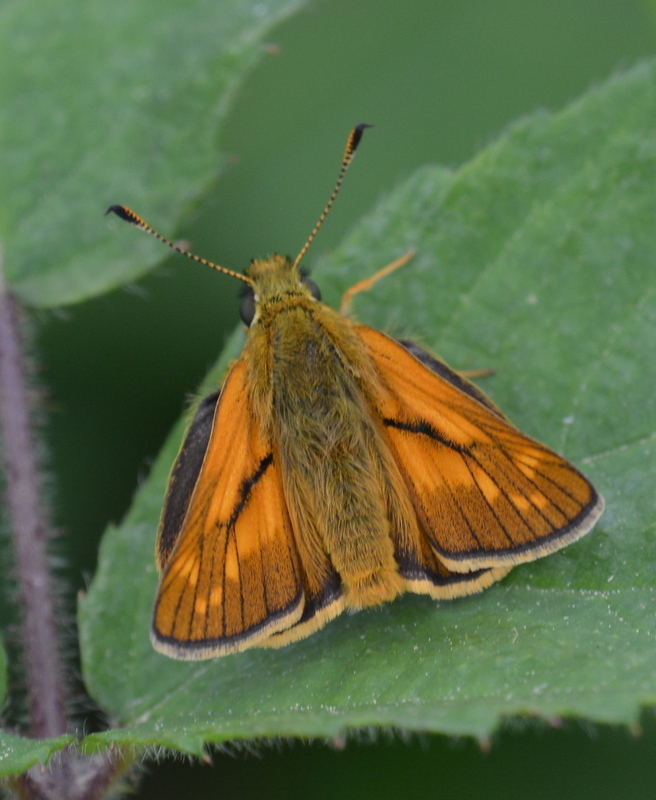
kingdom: Animalia
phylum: Arthropoda
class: Insecta
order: Lepidoptera
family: Hesperiidae
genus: Ochlodes
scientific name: Ochlodes venata
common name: Large skipper
